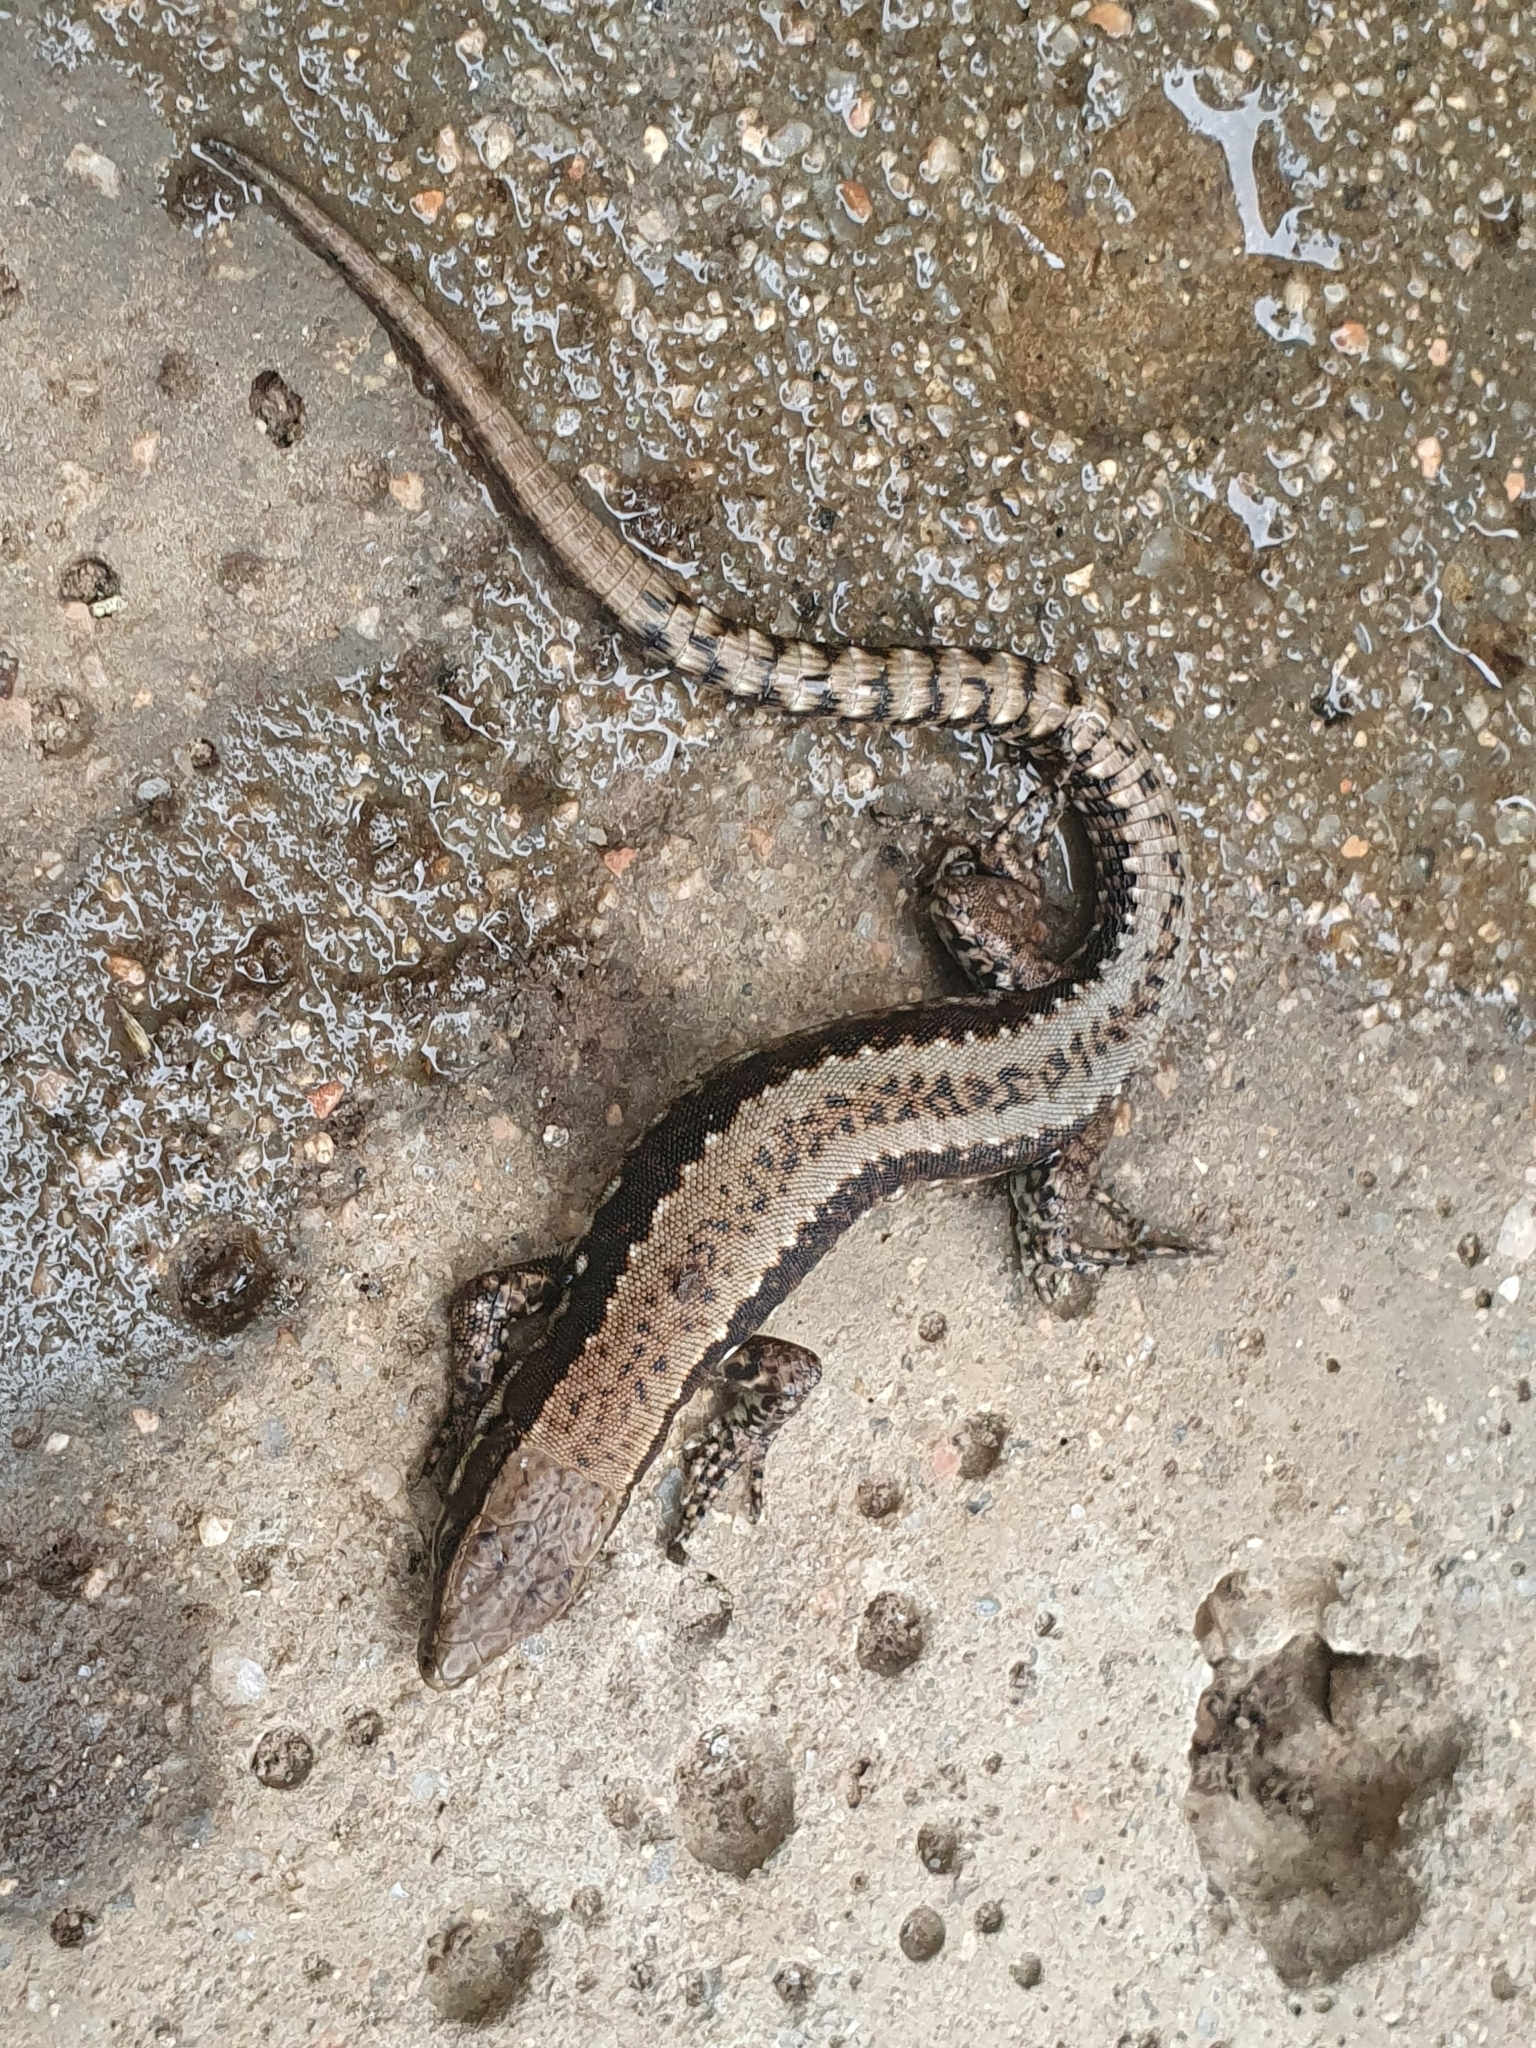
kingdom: Animalia
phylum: Chordata
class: Squamata
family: Lacertidae
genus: Iberolacerta
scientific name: Iberolacerta monticola
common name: Iberian mountain lizard
